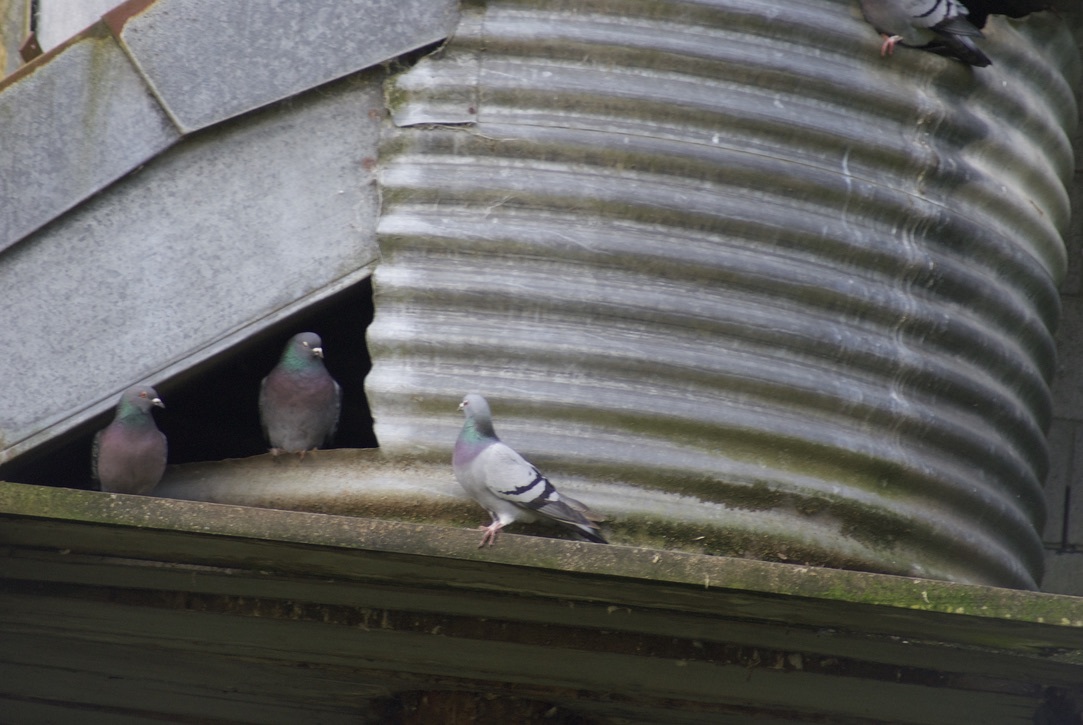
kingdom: Animalia
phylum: Chordata
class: Aves
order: Columbiformes
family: Columbidae
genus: Columba
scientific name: Columba livia
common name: Rock pigeon
